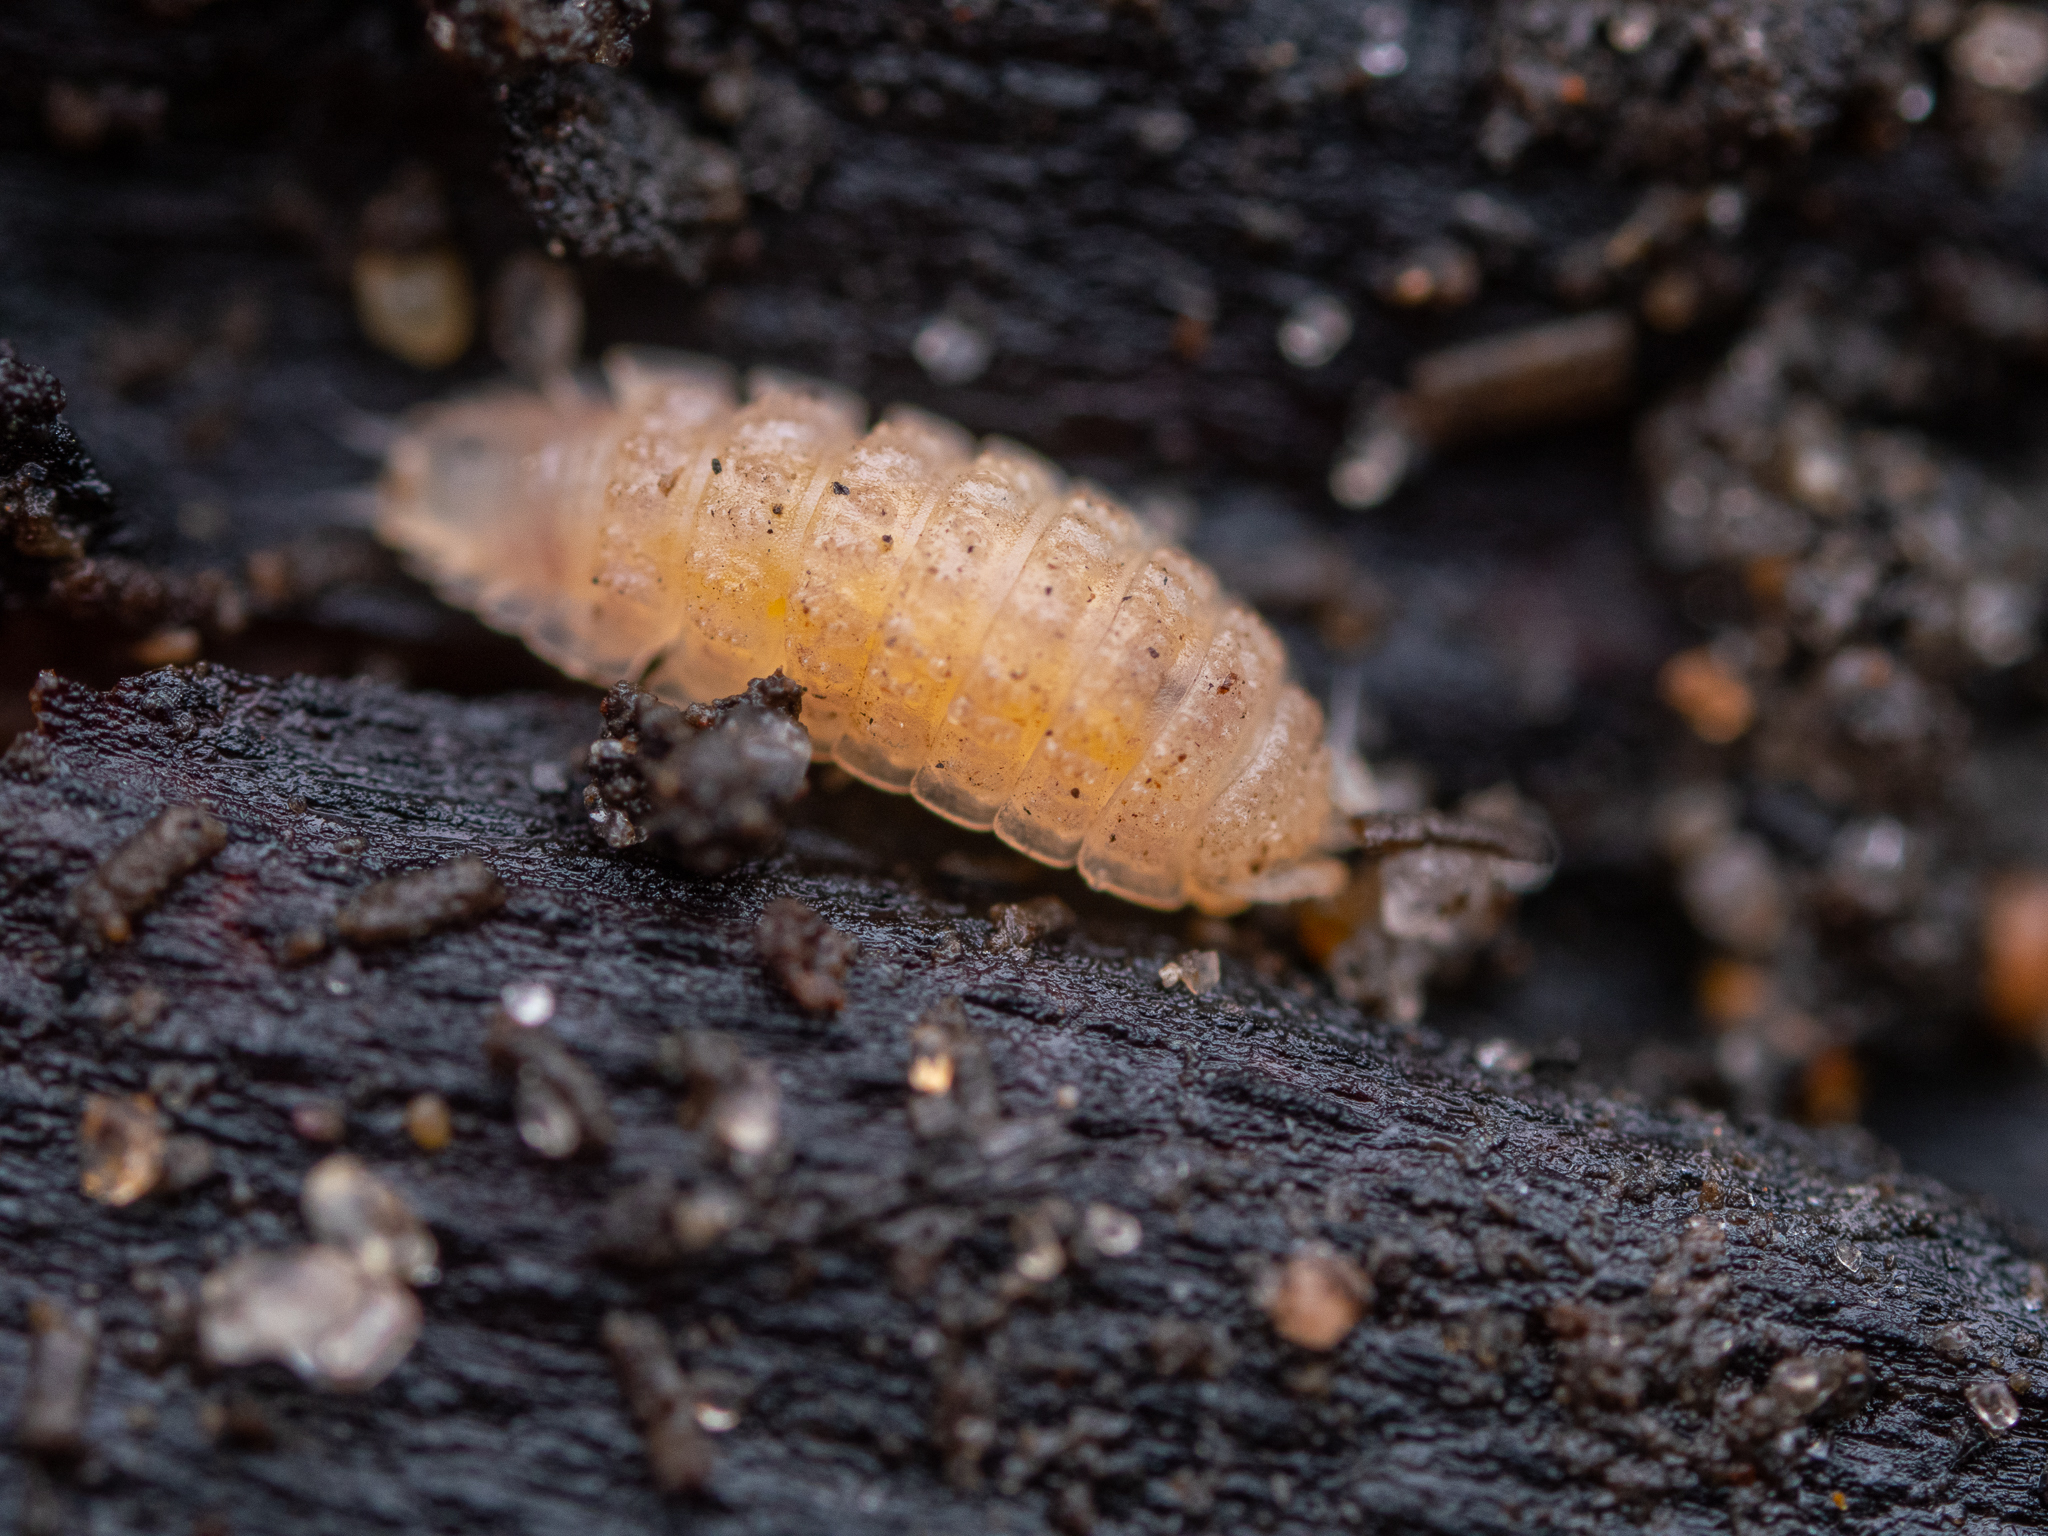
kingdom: Animalia
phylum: Arthropoda
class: Malacostraca
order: Isopoda
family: Trichoniscidae
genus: Haplophthalmus
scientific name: Haplophthalmus danicus
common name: Pillbug
